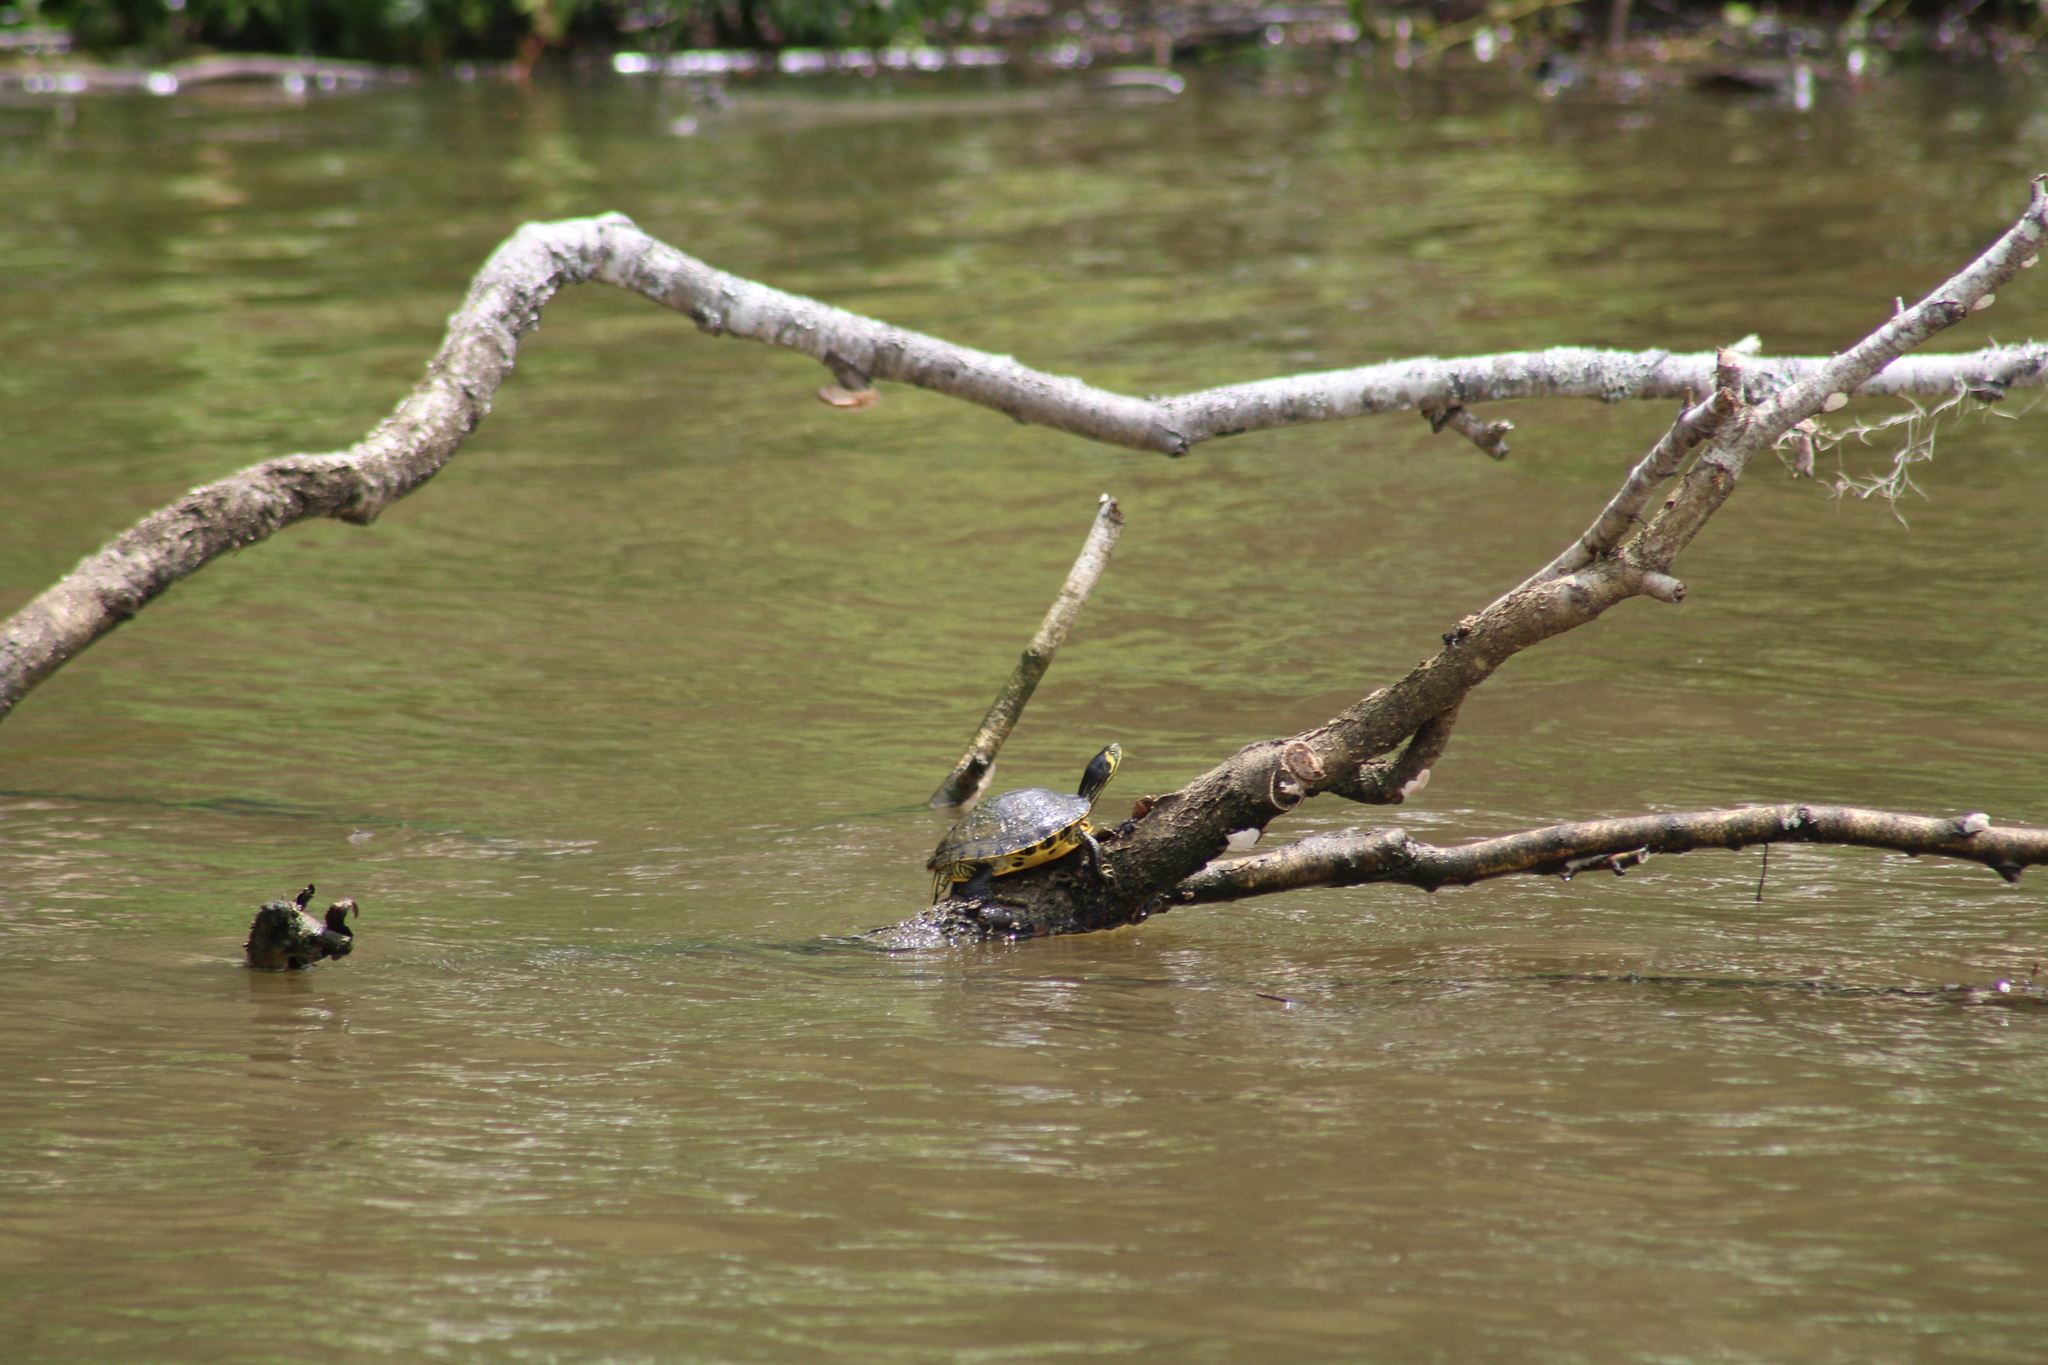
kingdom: Animalia
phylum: Chordata
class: Testudines
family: Emydidae
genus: Trachemys
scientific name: Trachemys scripta
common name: Slider
